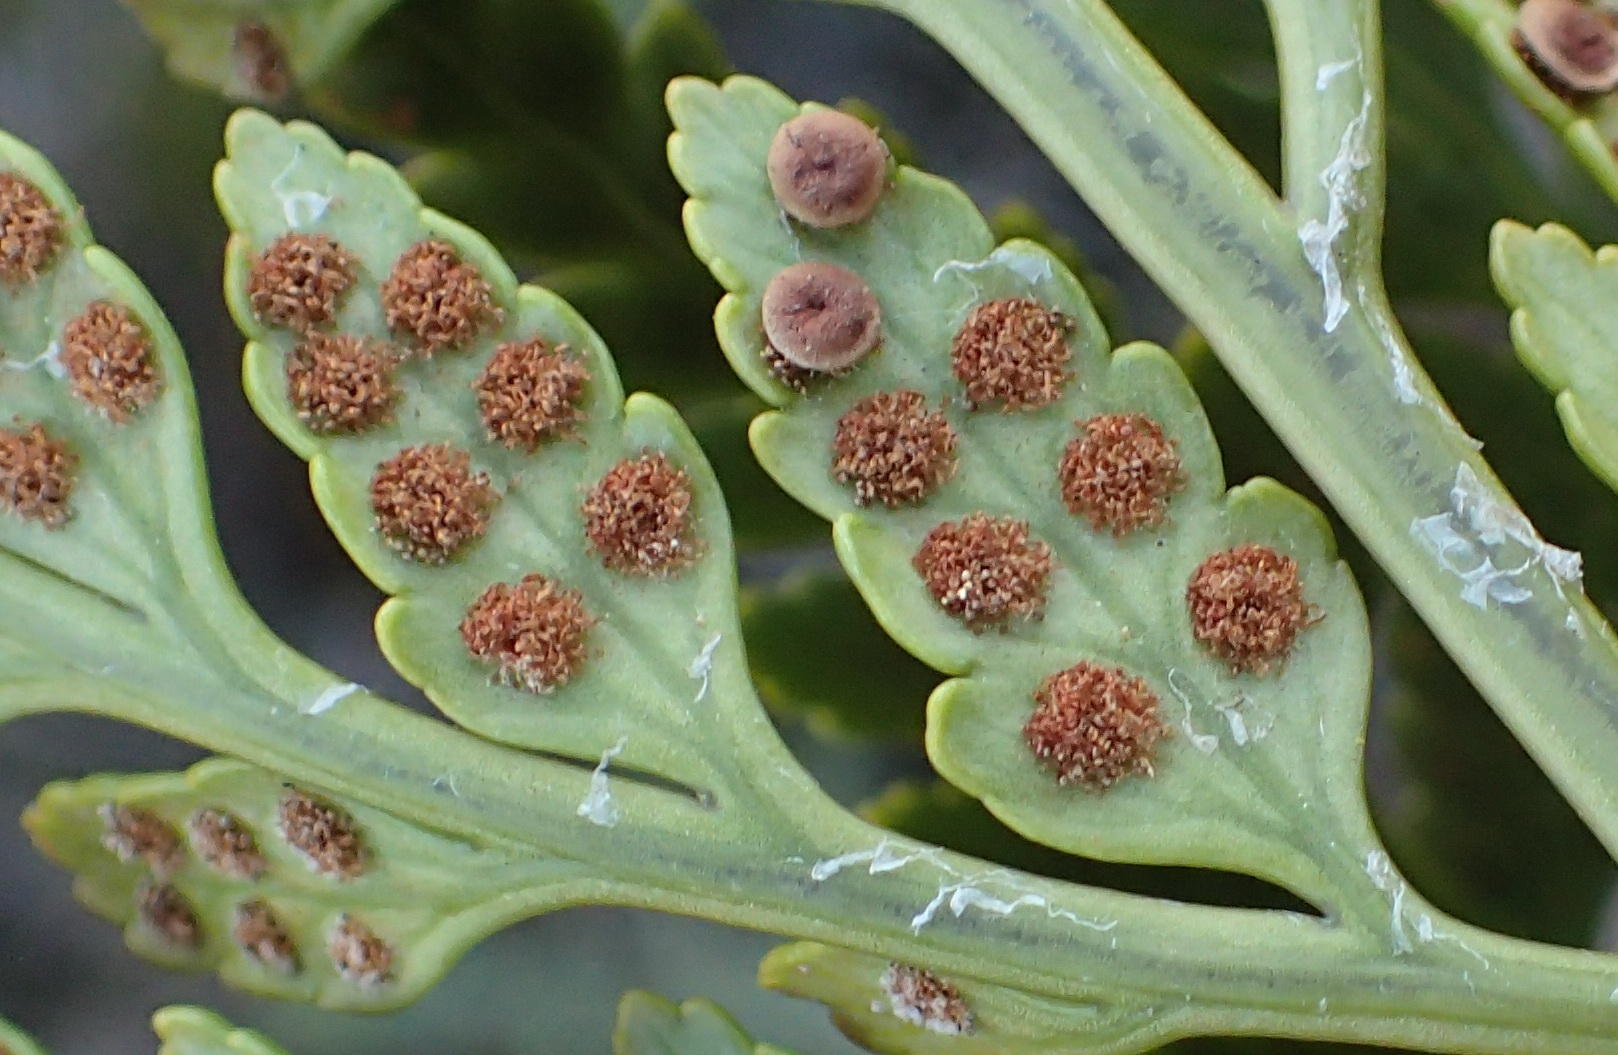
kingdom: Plantae
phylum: Tracheophyta
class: Polypodiopsida
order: Polypodiales
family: Dryopteridaceae
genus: Rumohra
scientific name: Rumohra adiantiformis
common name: Leather fern
